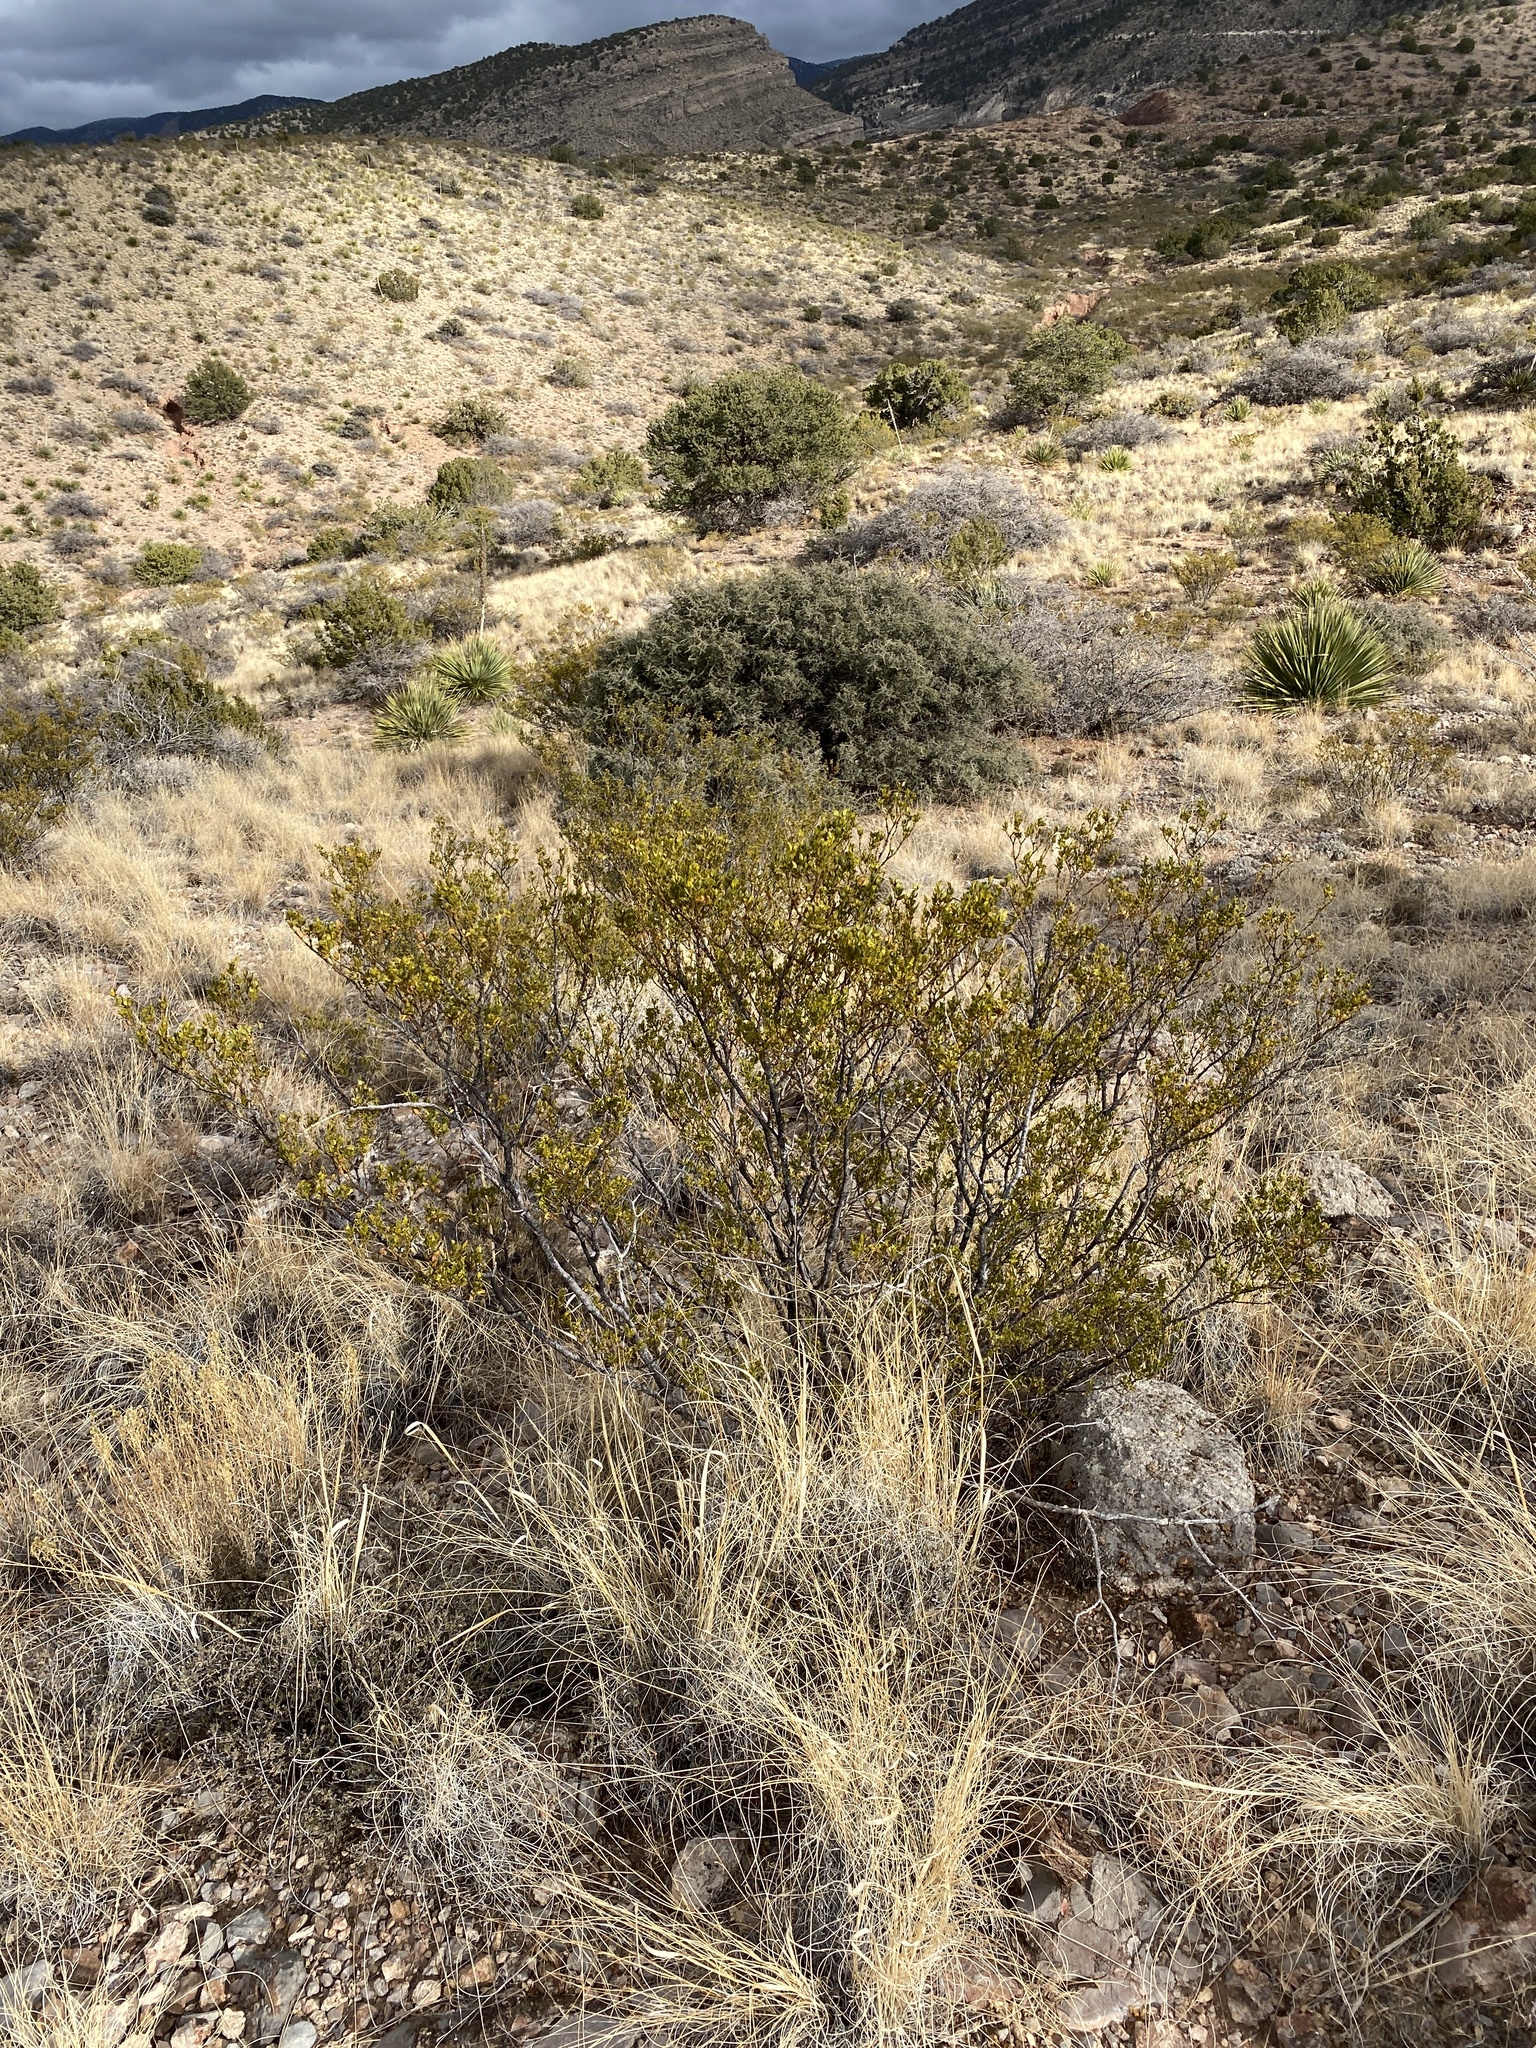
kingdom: Plantae
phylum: Tracheophyta
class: Magnoliopsida
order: Zygophyllales
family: Zygophyllaceae
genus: Larrea
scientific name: Larrea tridentata
